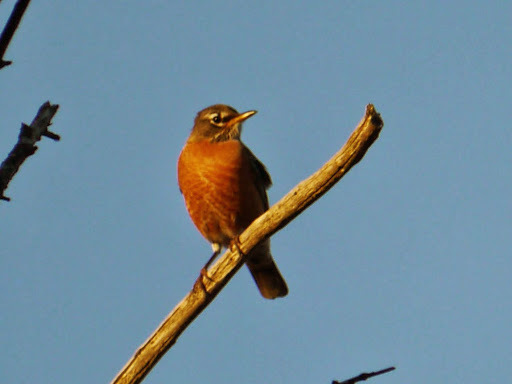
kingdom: Animalia
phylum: Chordata
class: Aves
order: Passeriformes
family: Turdidae
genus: Turdus
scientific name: Turdus migratorius
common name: American robin
